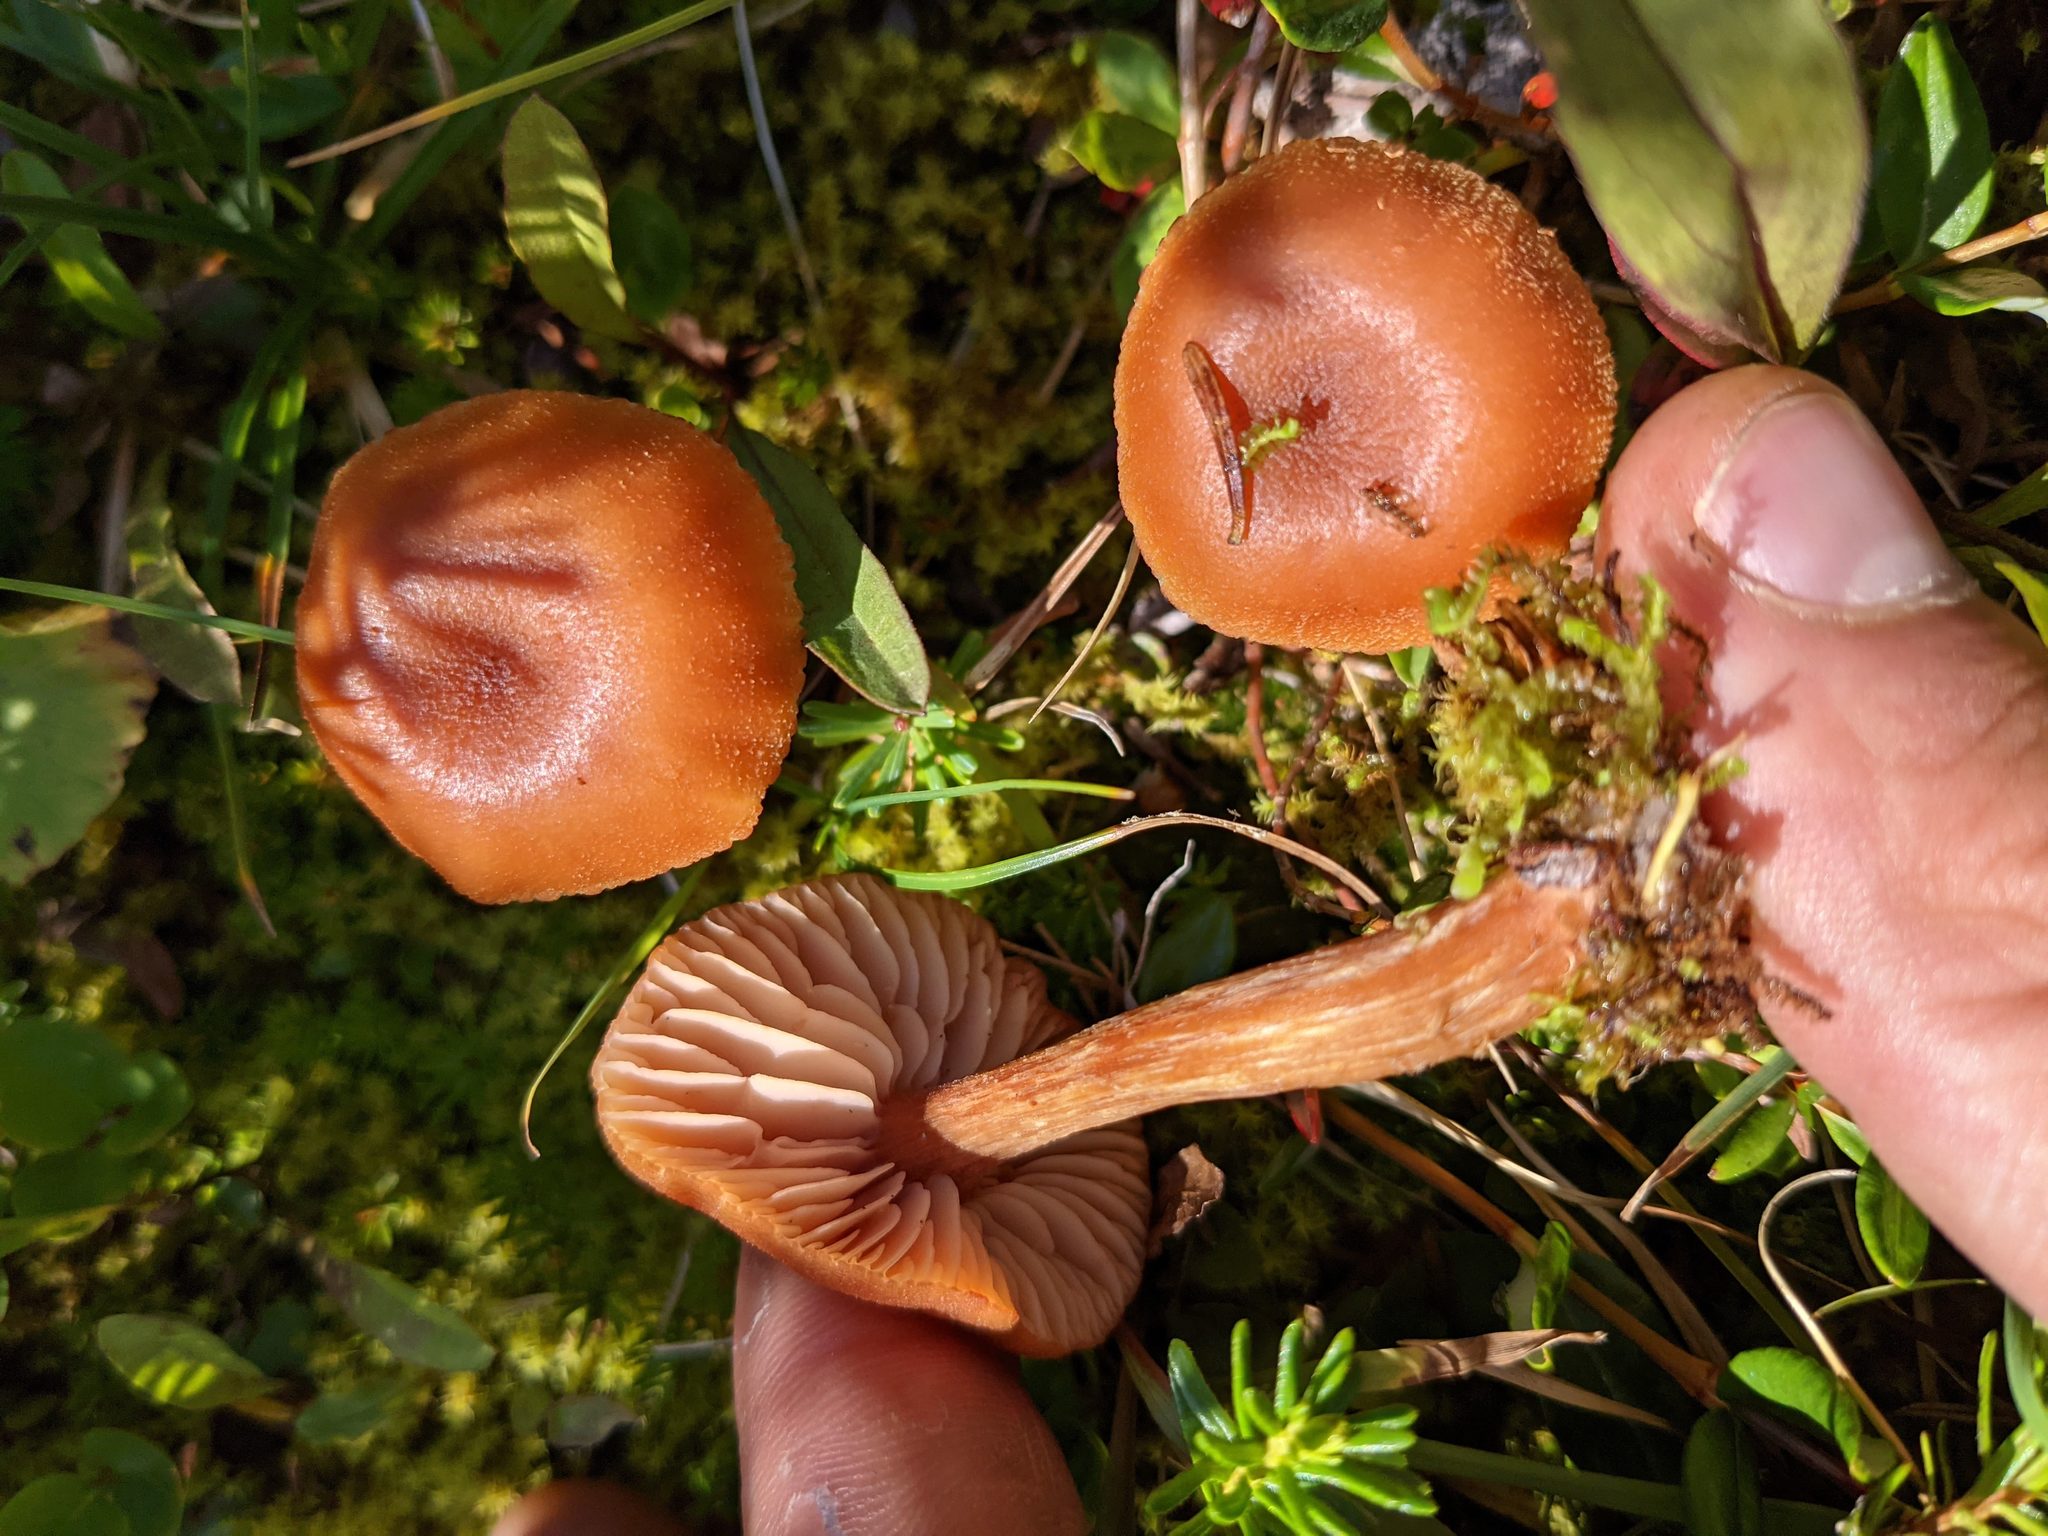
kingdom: Fungi
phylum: Basidiomycota
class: Agaricomycetes
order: Agaricales
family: Hydnangiaceae
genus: Laccaria
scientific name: Laccaria laccata
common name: Deceiver
